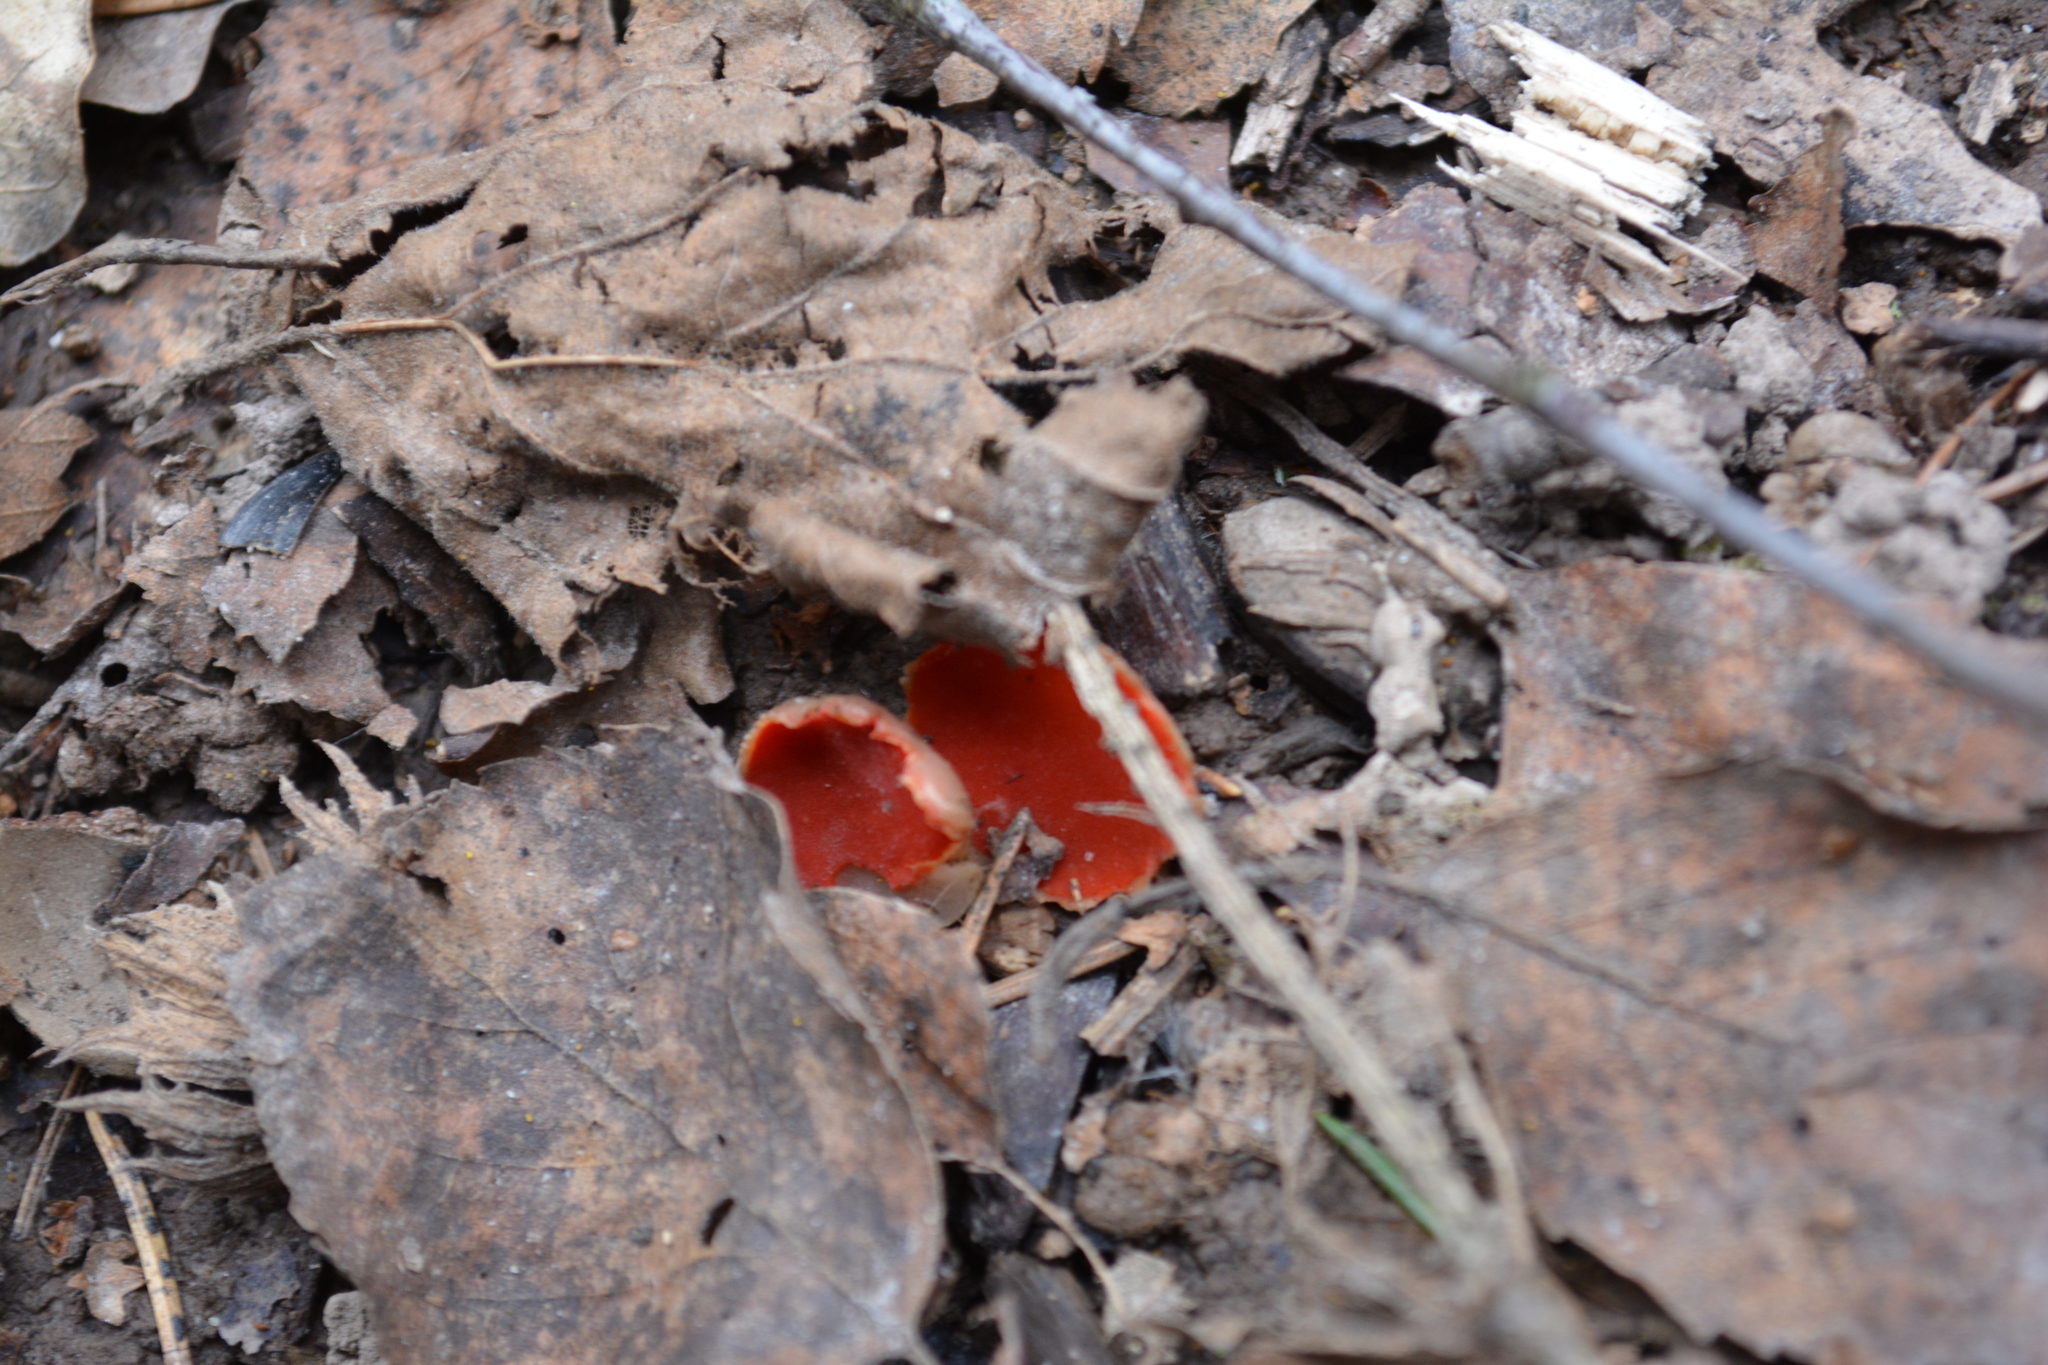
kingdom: Fungi
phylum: Ascomycota
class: Pezizomycetes
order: Pezizales
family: Sarcoscyphaceae
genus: Sarcoscypha
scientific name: Sarcoscypha austriaca
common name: Scarlet elfcup
